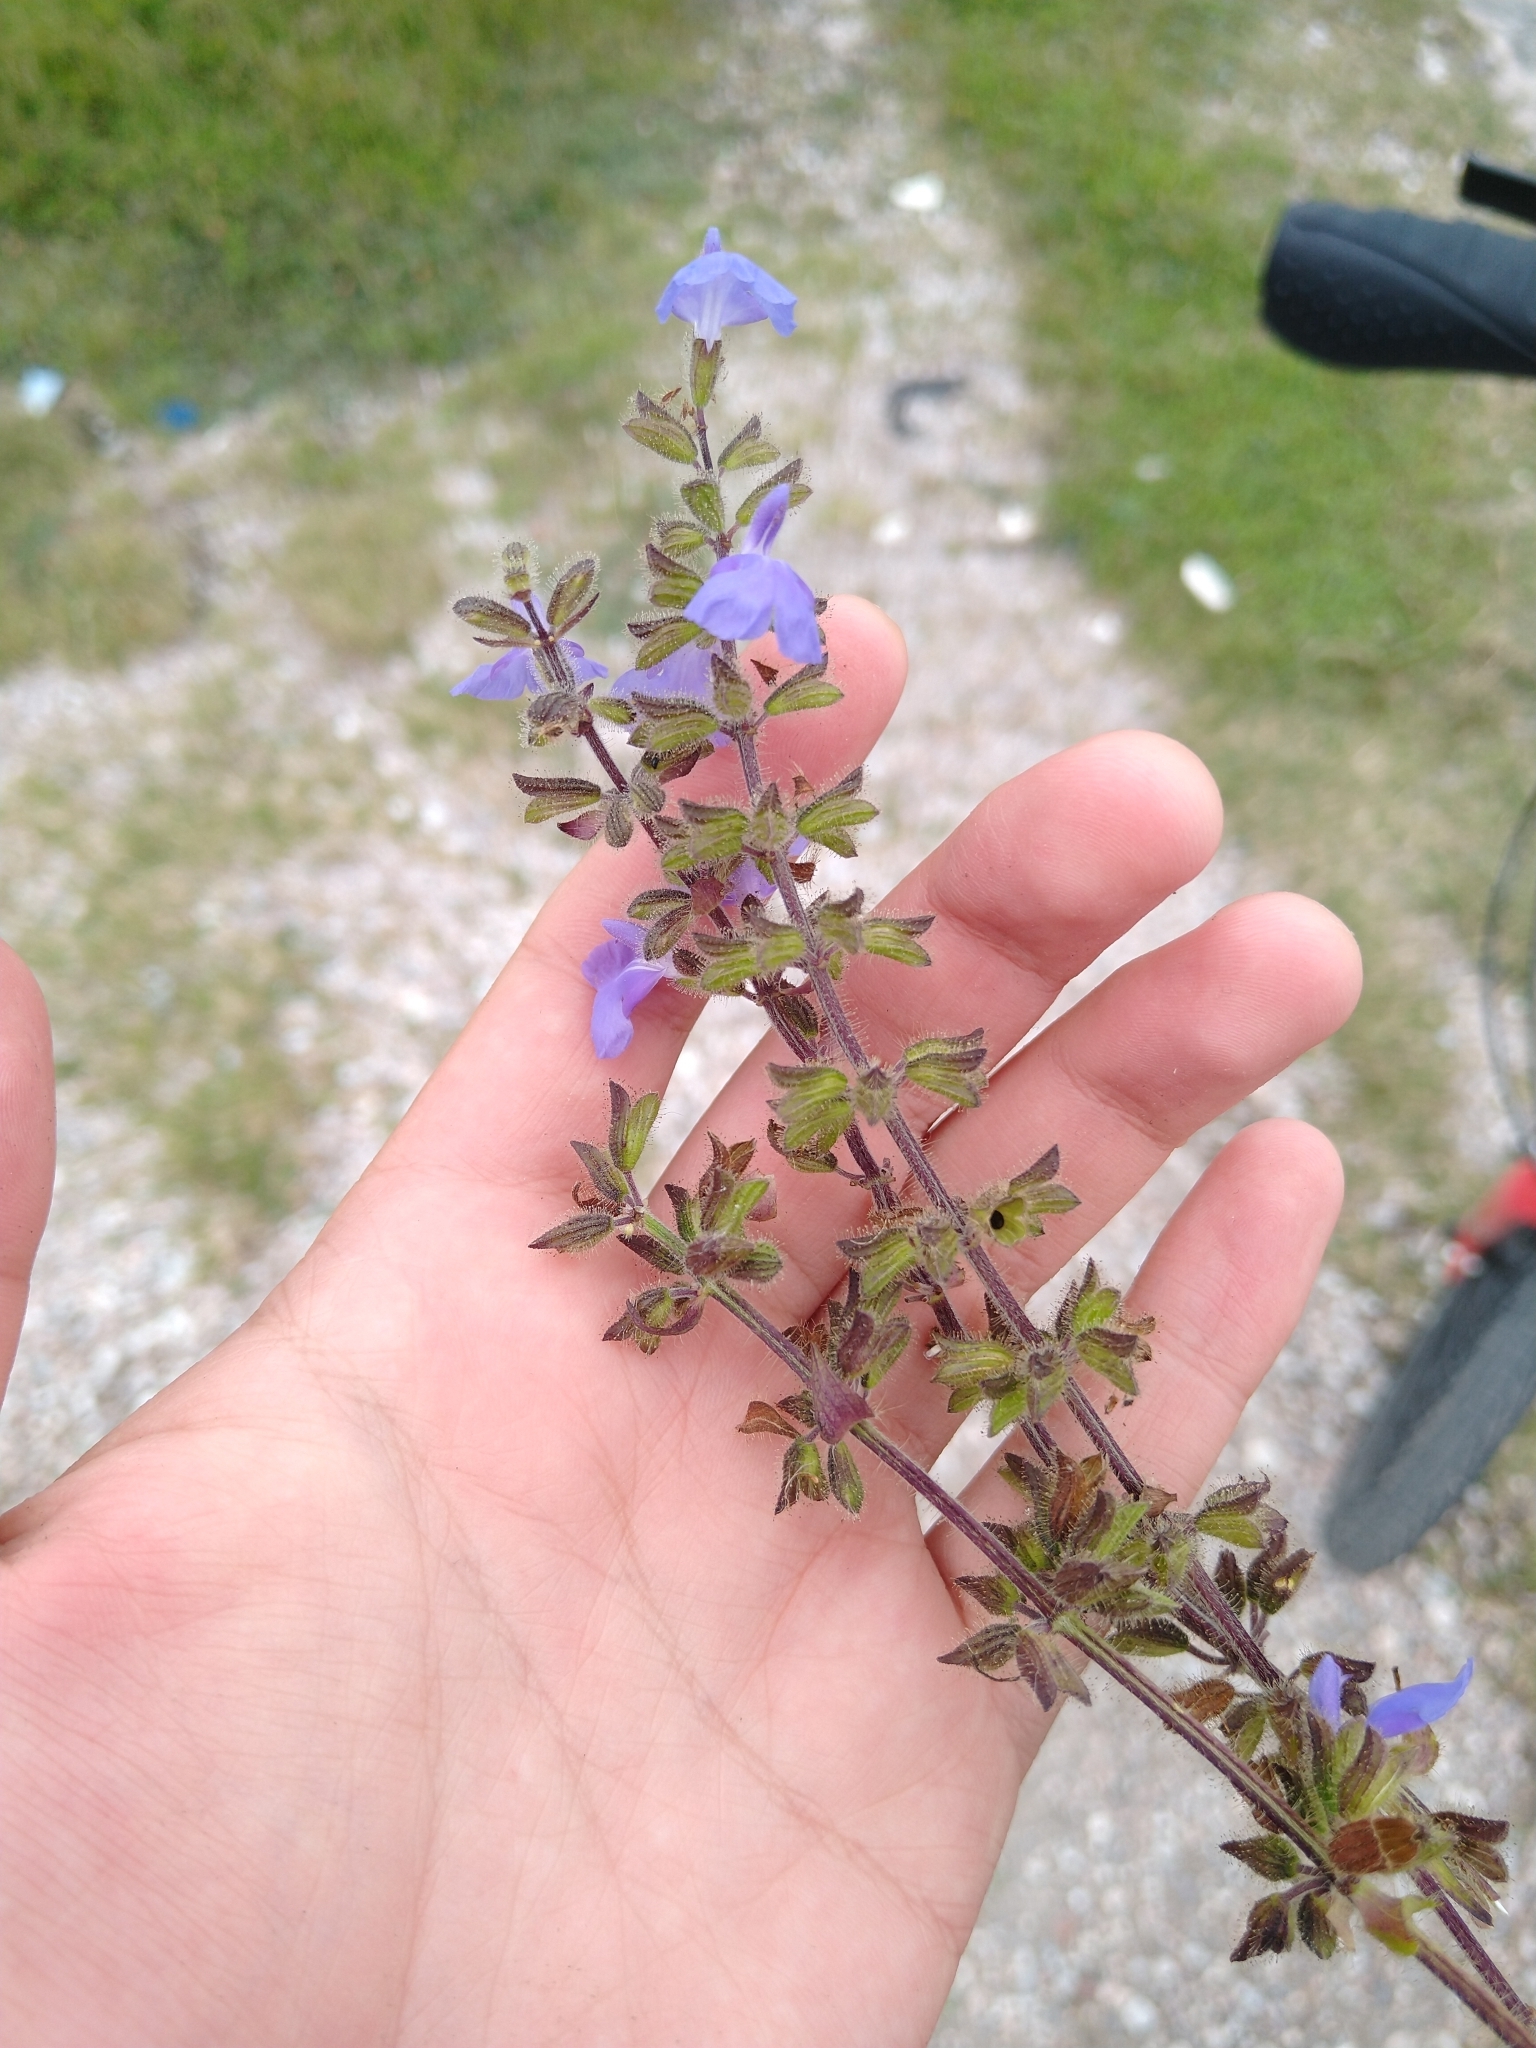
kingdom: Plantae
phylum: Tracheophyta
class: Magnoliopsida
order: Lamiales
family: Lamiaceae
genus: Salvia
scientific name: Salvia circinnata
